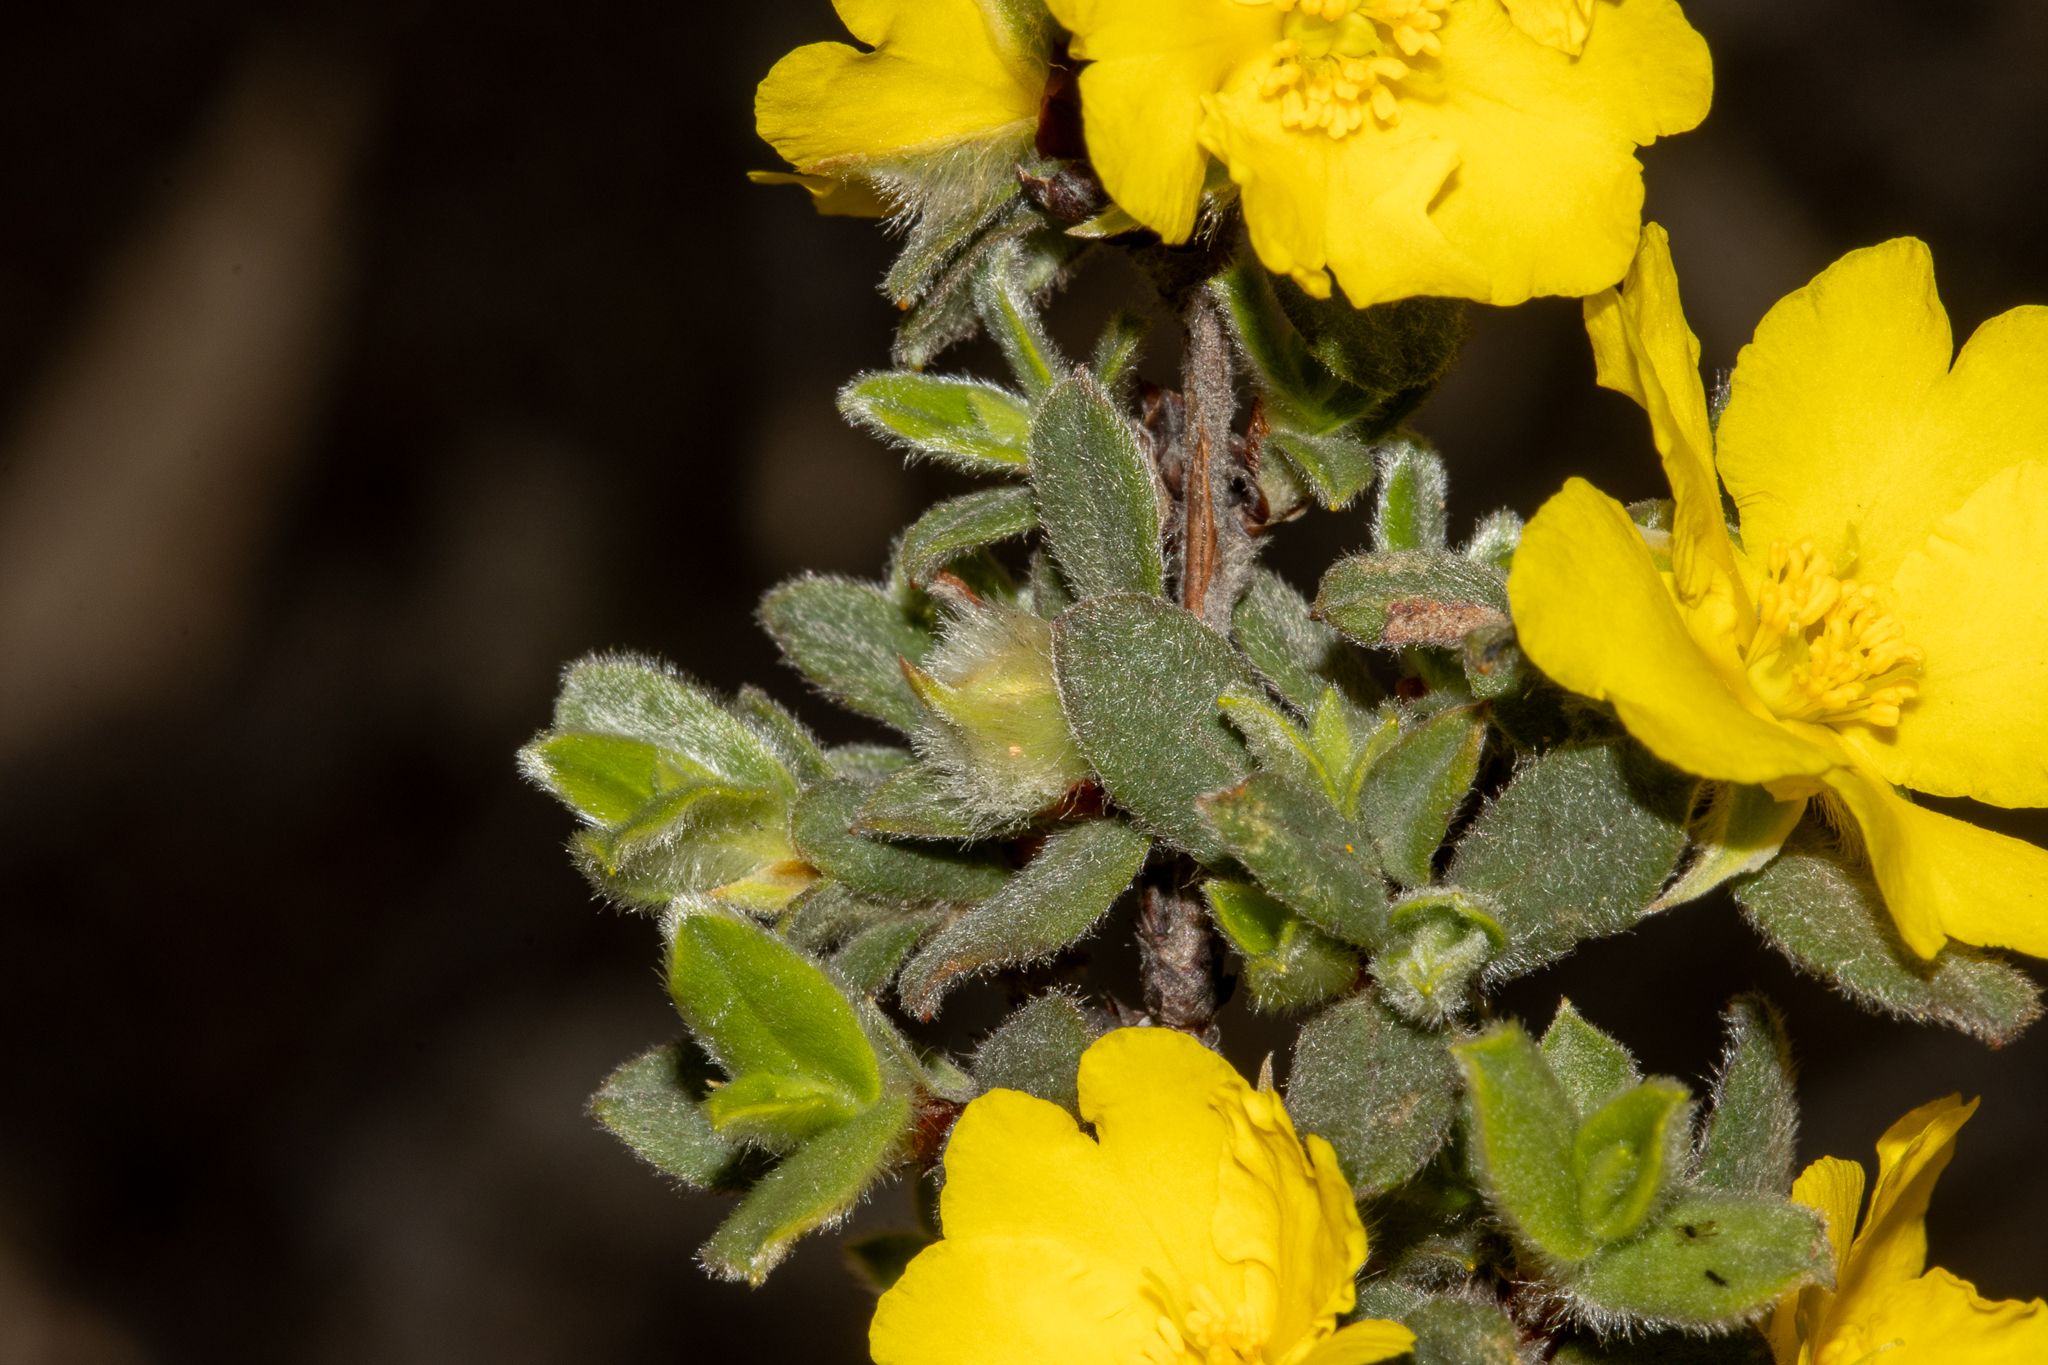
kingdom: Plantae
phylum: Tracheophyta
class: Magnoliopsida
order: Dilleniales
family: Dilleniaceae
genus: Hibbertia
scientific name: Hibbertia commutata
